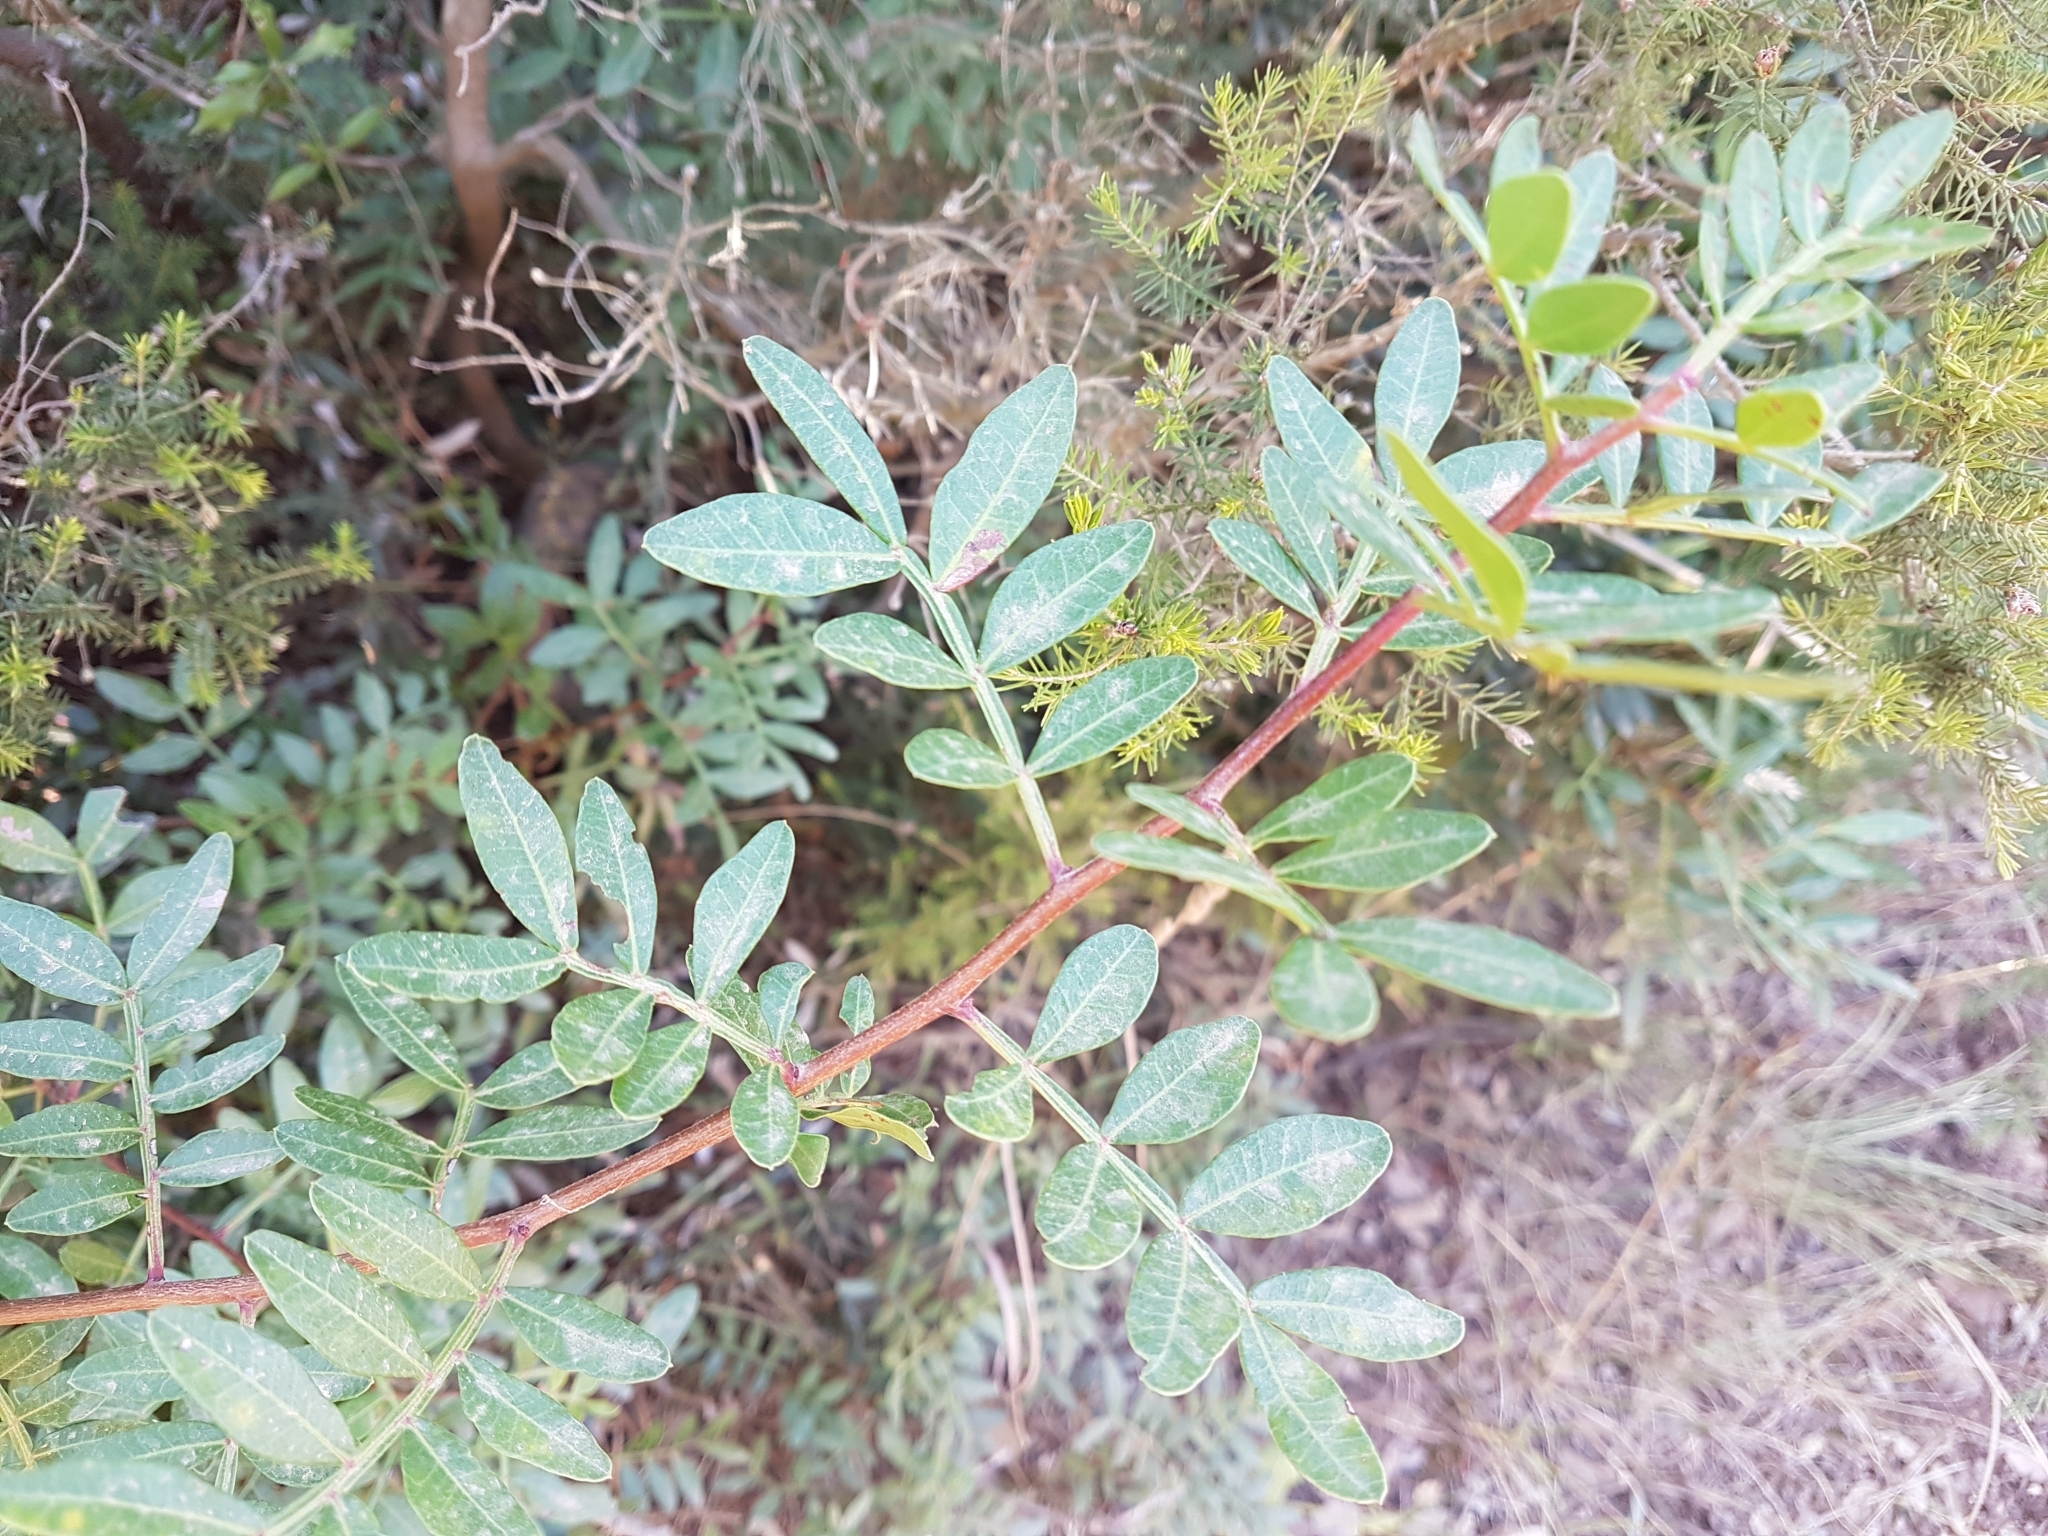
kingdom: Plantae
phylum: Tracheophyta
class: Magnoliopsida
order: Sapindales
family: Anacardiaceae
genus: Pistacia
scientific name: Pistacia lentiscus
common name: Lentisk
